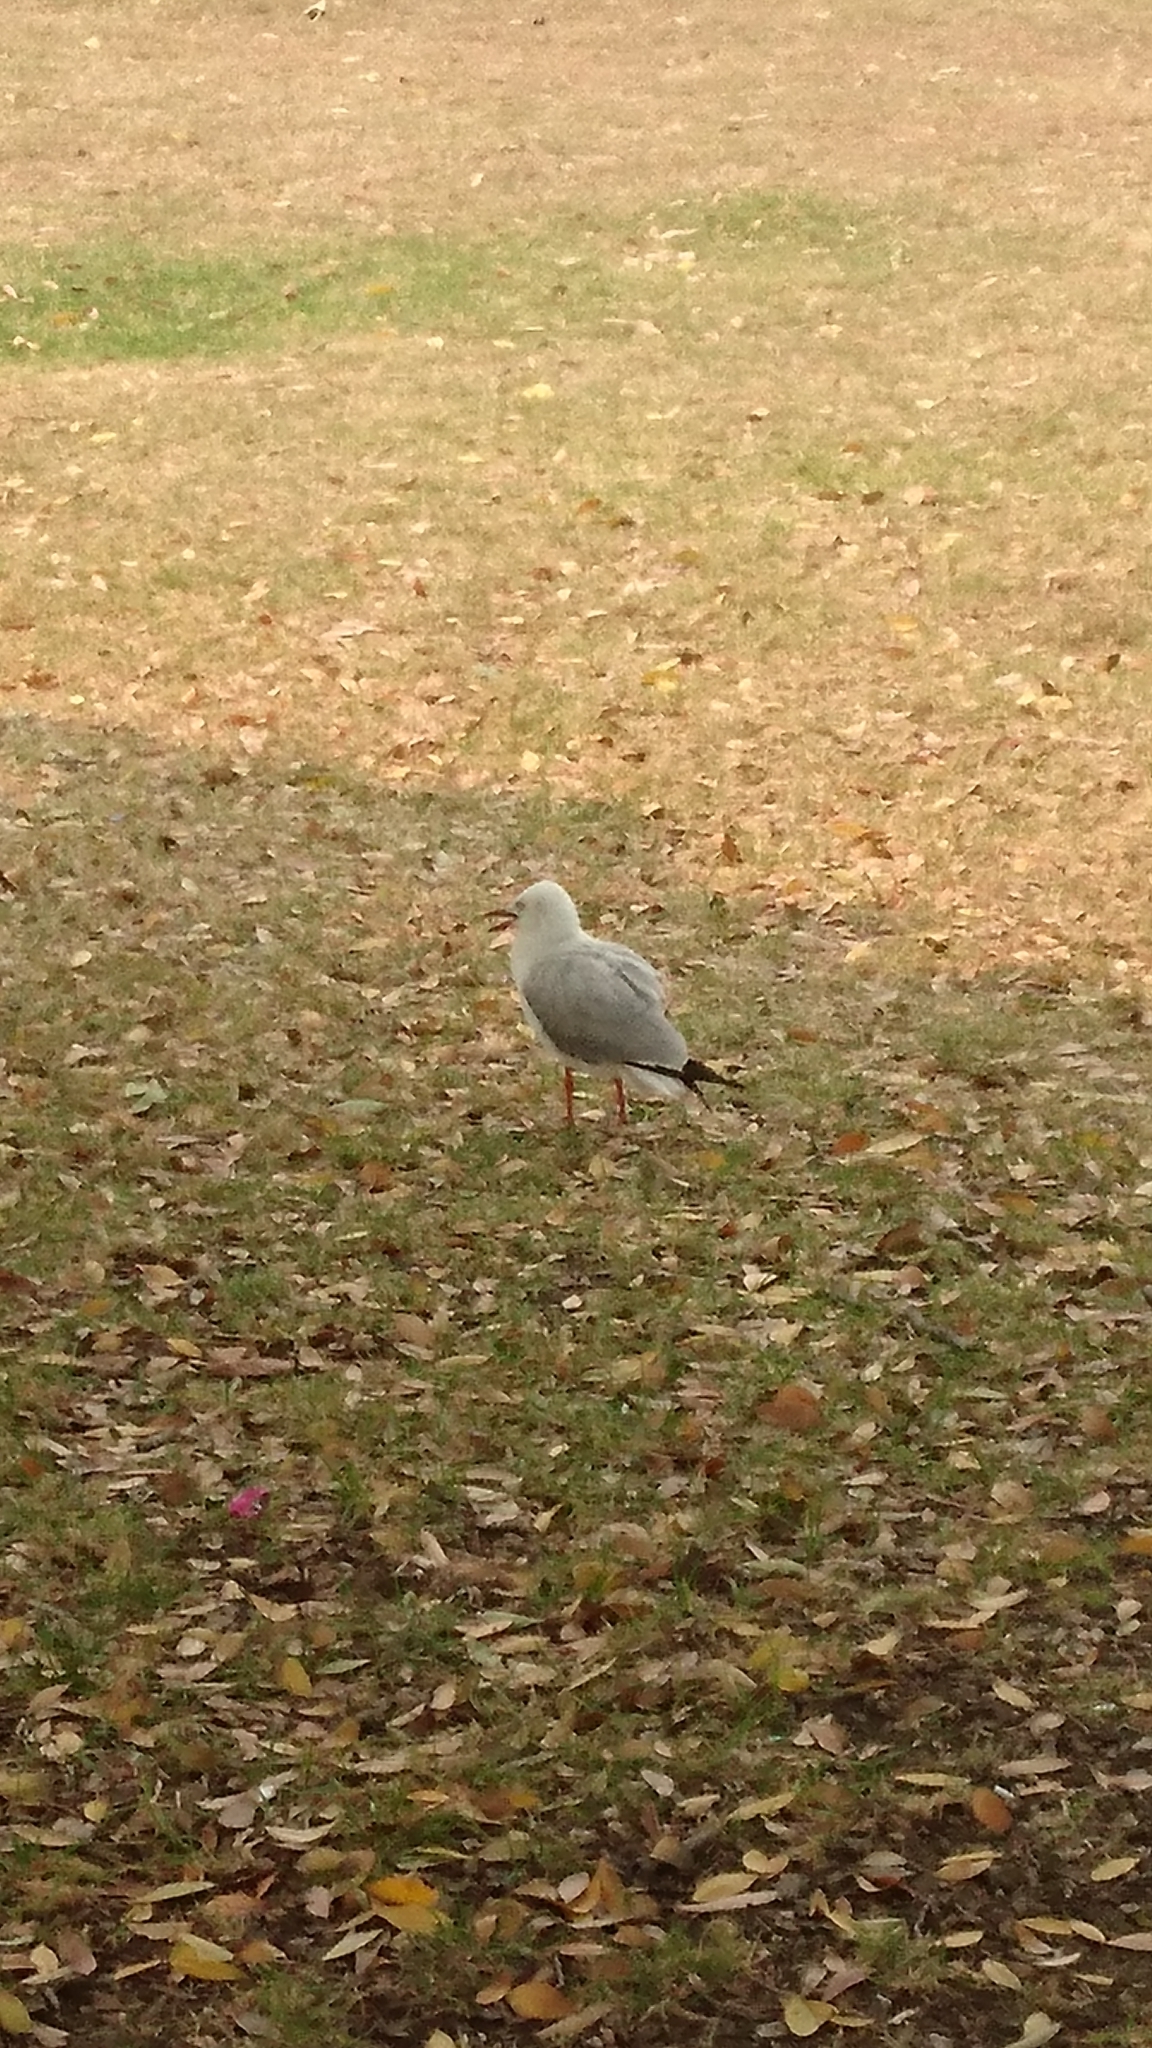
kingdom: Animalia
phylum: Chordata
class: Aves
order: Charadriiformes
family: Laridae
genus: Chroicocephalus
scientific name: Chroicocephalus novaehollandiae
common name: Silver gull
